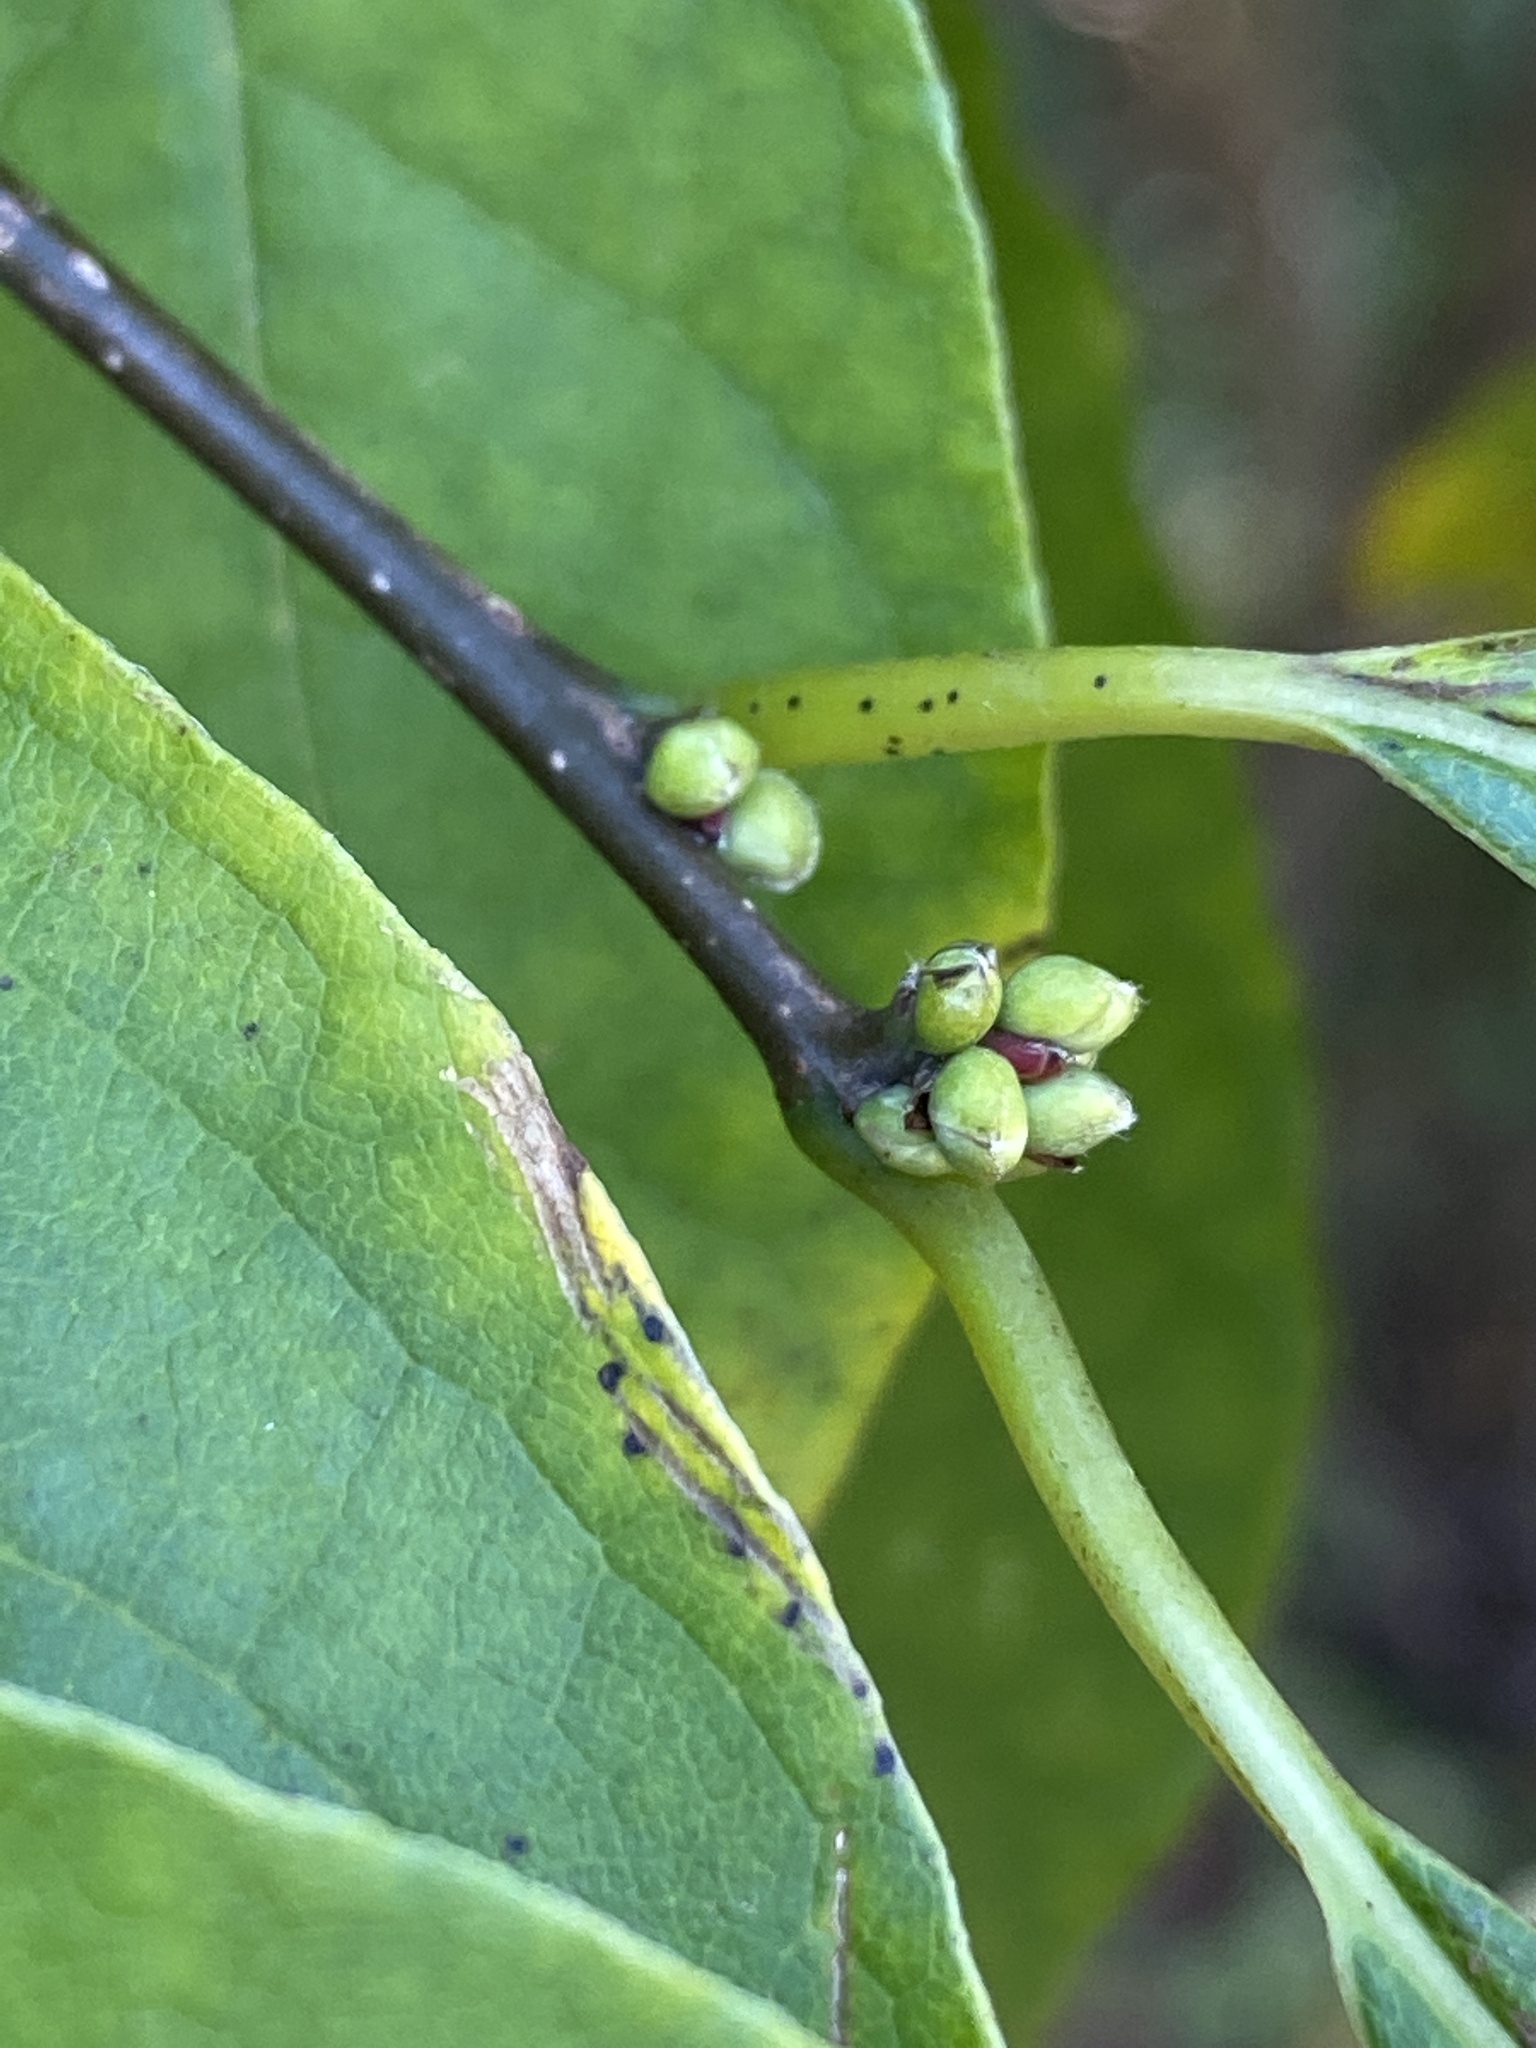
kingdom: Plantae
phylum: Tracheophyta
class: Magnoliopsida
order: Laurales
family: Lauraceae
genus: Lindera
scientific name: Lindera benzoin
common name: Spicebush
